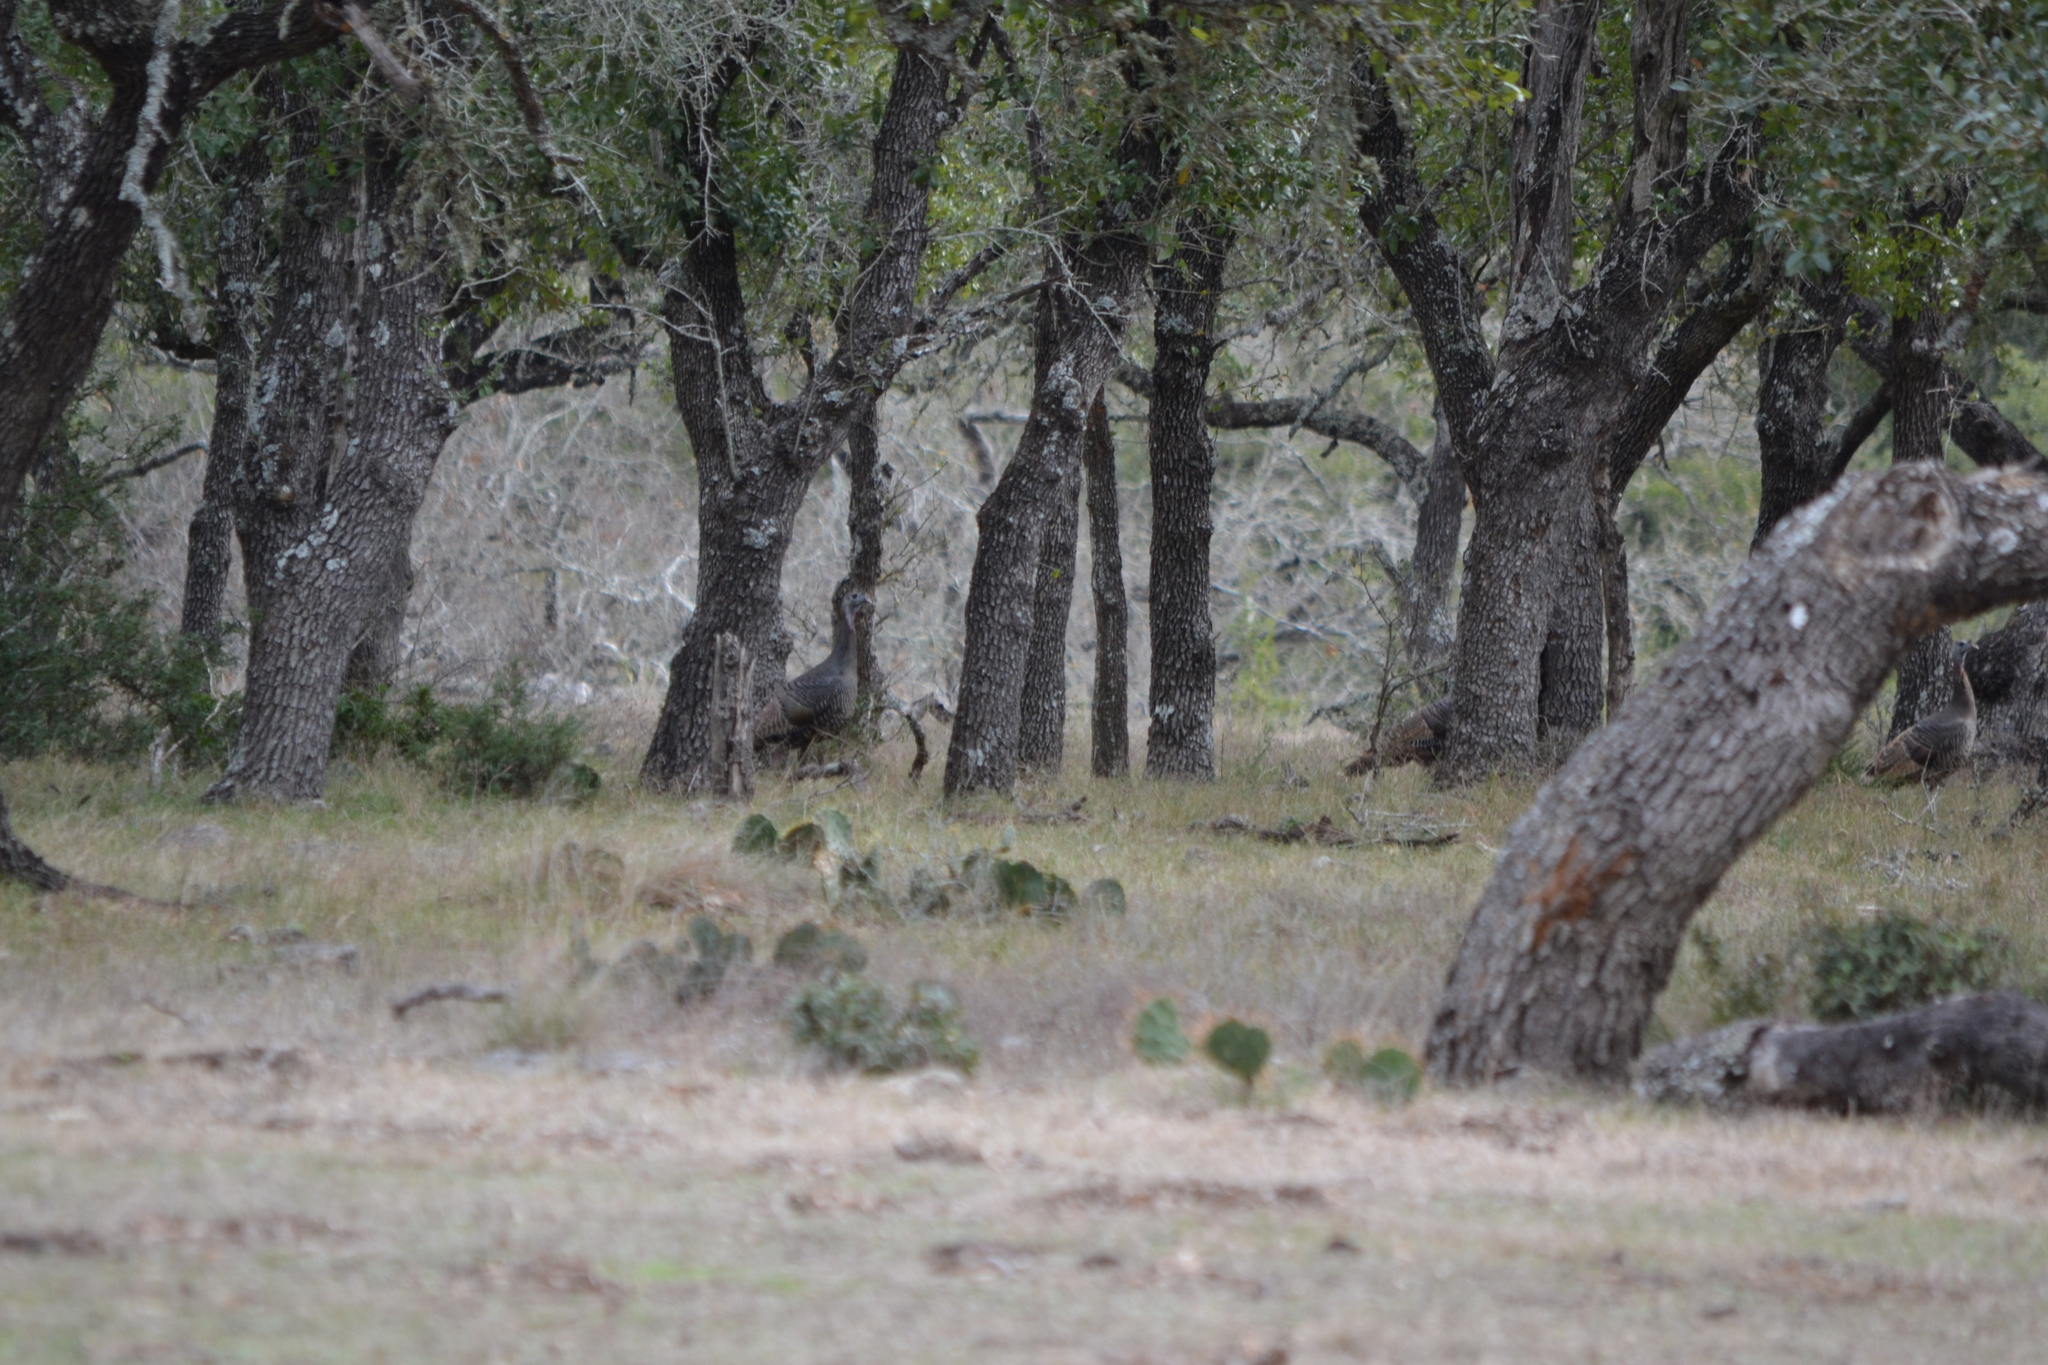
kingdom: Animalia
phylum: Chordata
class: Aves
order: Galliformes
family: Phasianidae
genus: Meleagris
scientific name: Meleagris gallopavo
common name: Wild turkey
